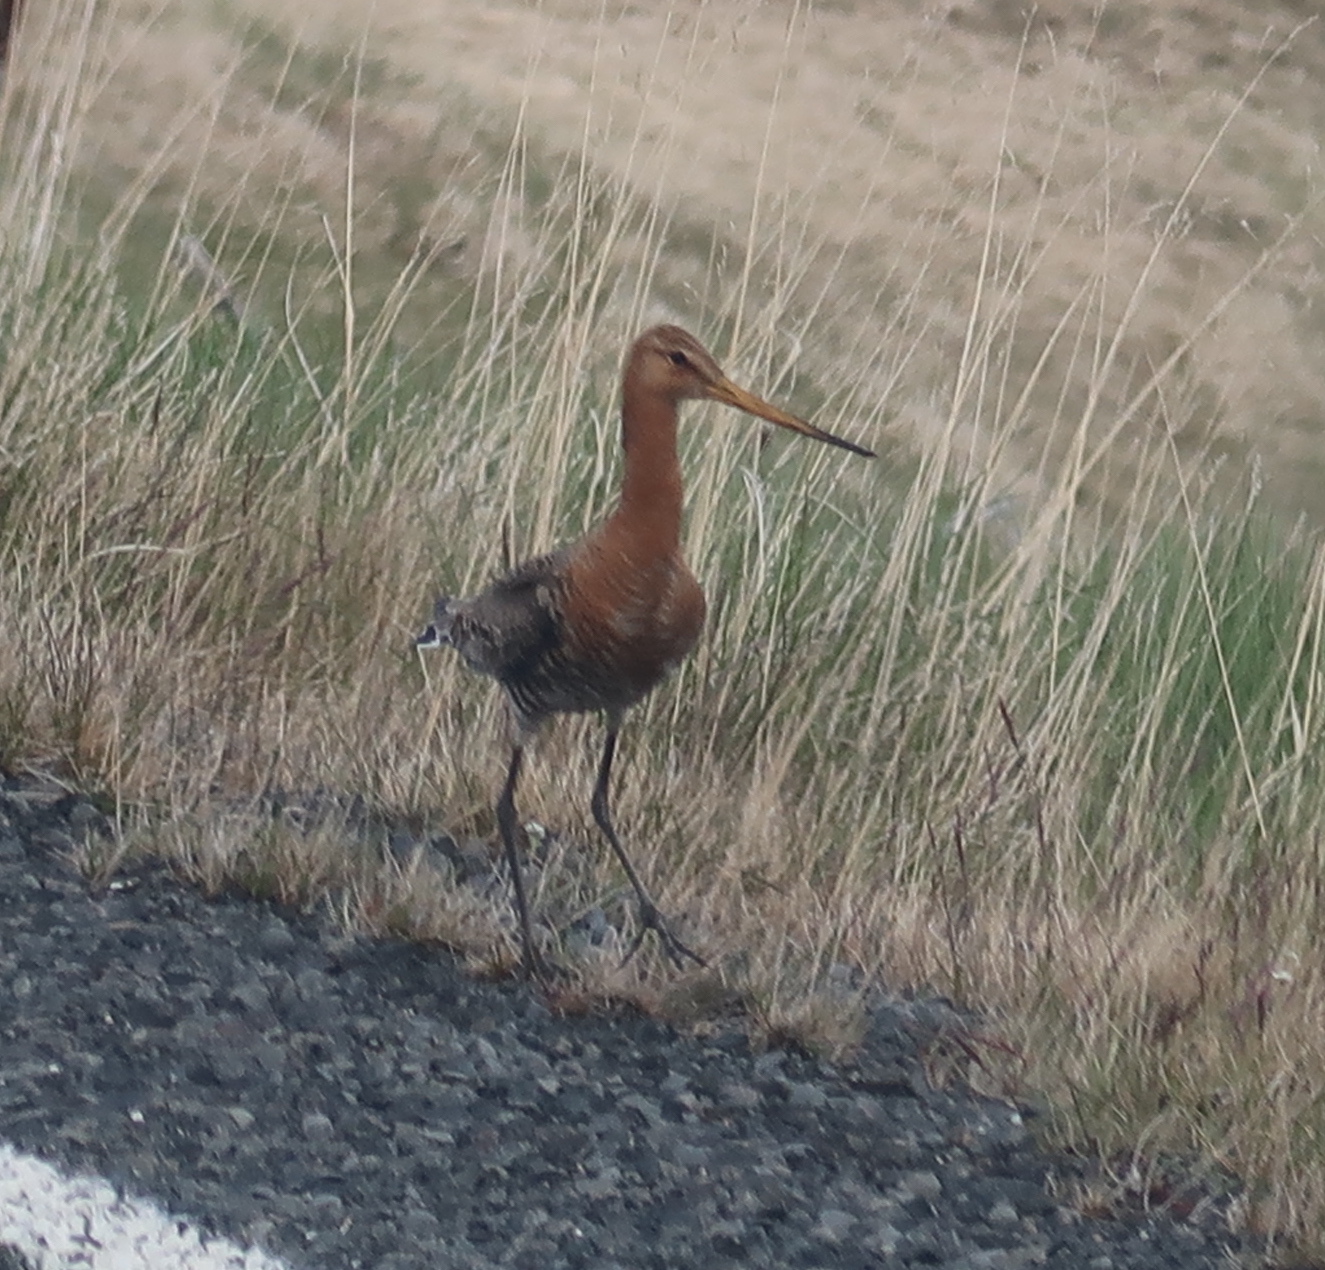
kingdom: Animalia
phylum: Chordata
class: Aves
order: Charadriiformes
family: Scolopacidae
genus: Limosa
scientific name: Limosa limosa
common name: Black-tailed godwit
